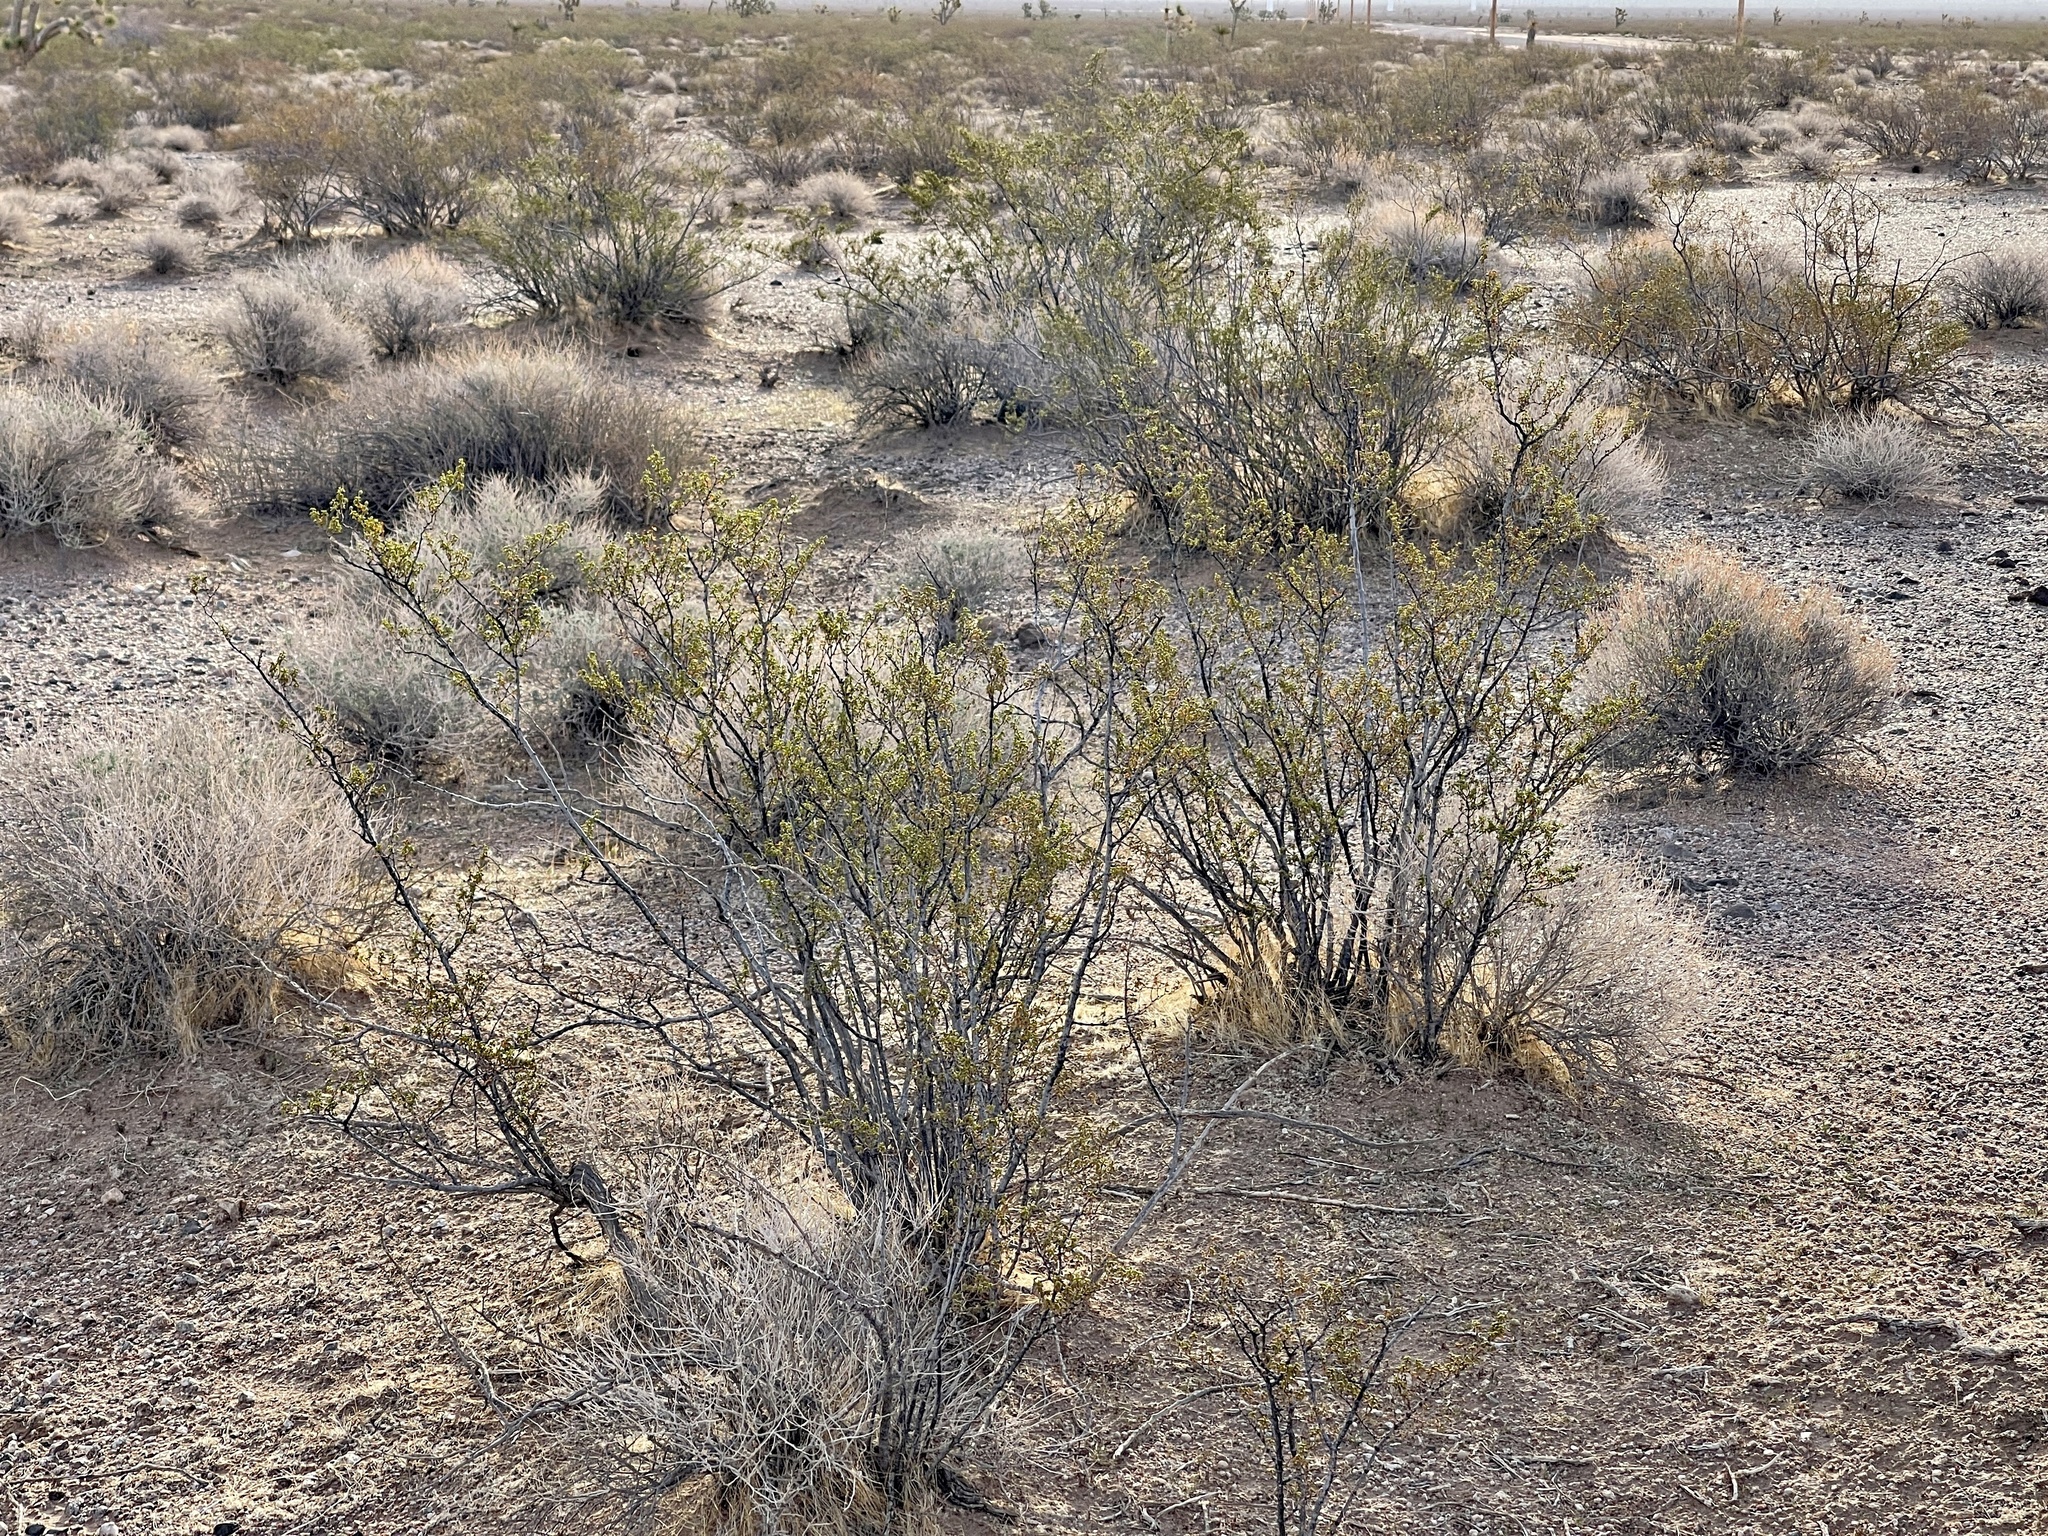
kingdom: Plantae
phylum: Tracheophyta
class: Magnoliopsida
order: Zygophyllales
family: Zygophyllaceae
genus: Larrea
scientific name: Larrea tridentata
